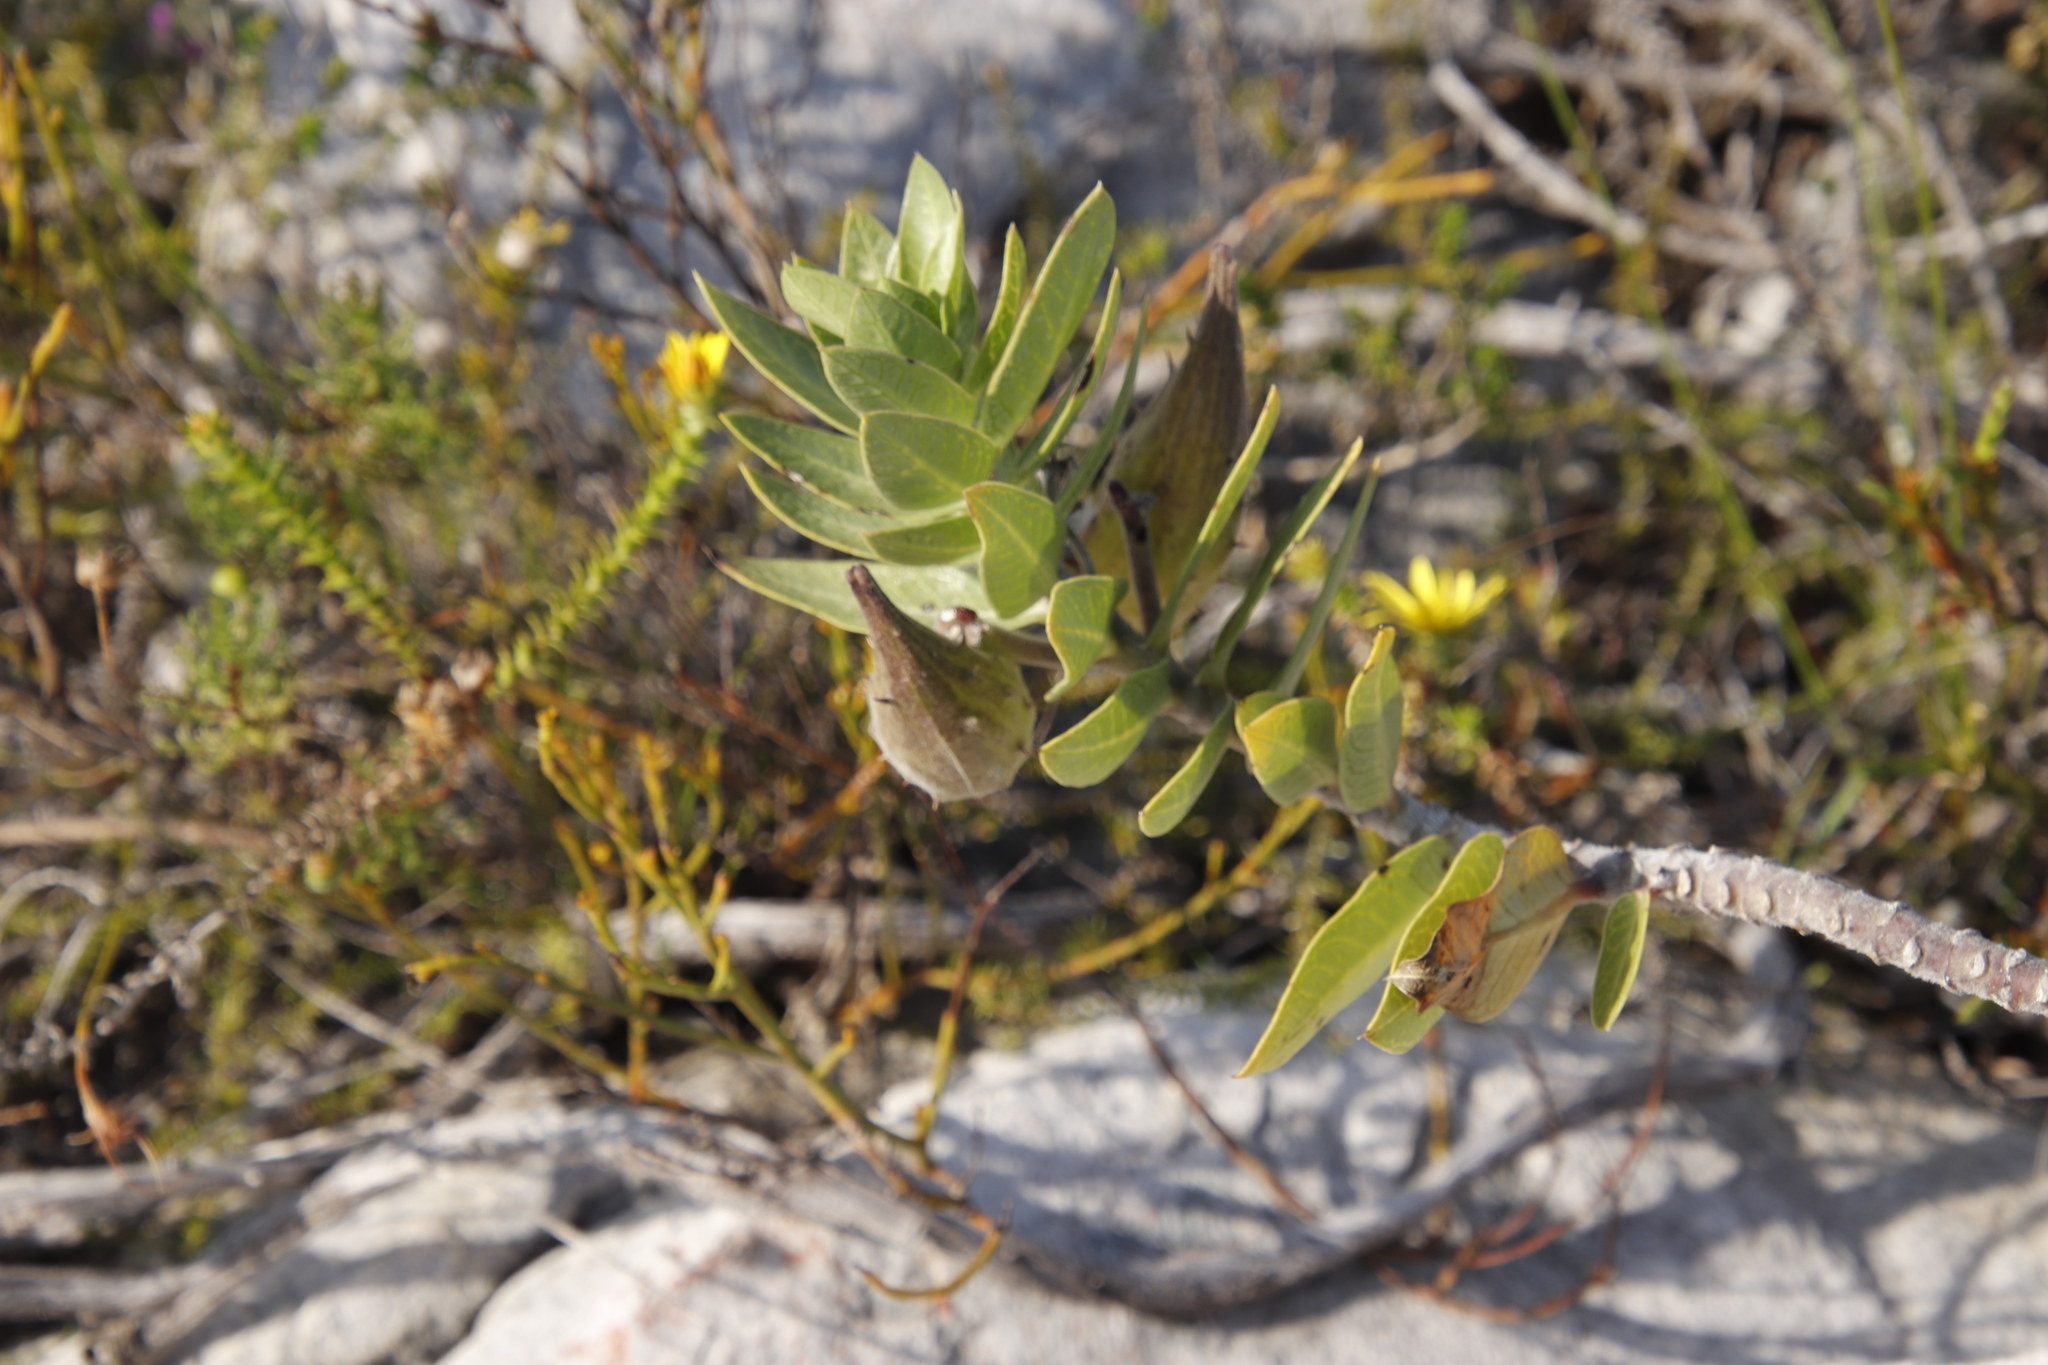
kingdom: Plantae
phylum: Tracheophyta
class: Magnoliopsida
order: Gentianales
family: Apocynaceae
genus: Gomphocarpus
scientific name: Gomphocarpus cancellatus
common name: Wild cotton
